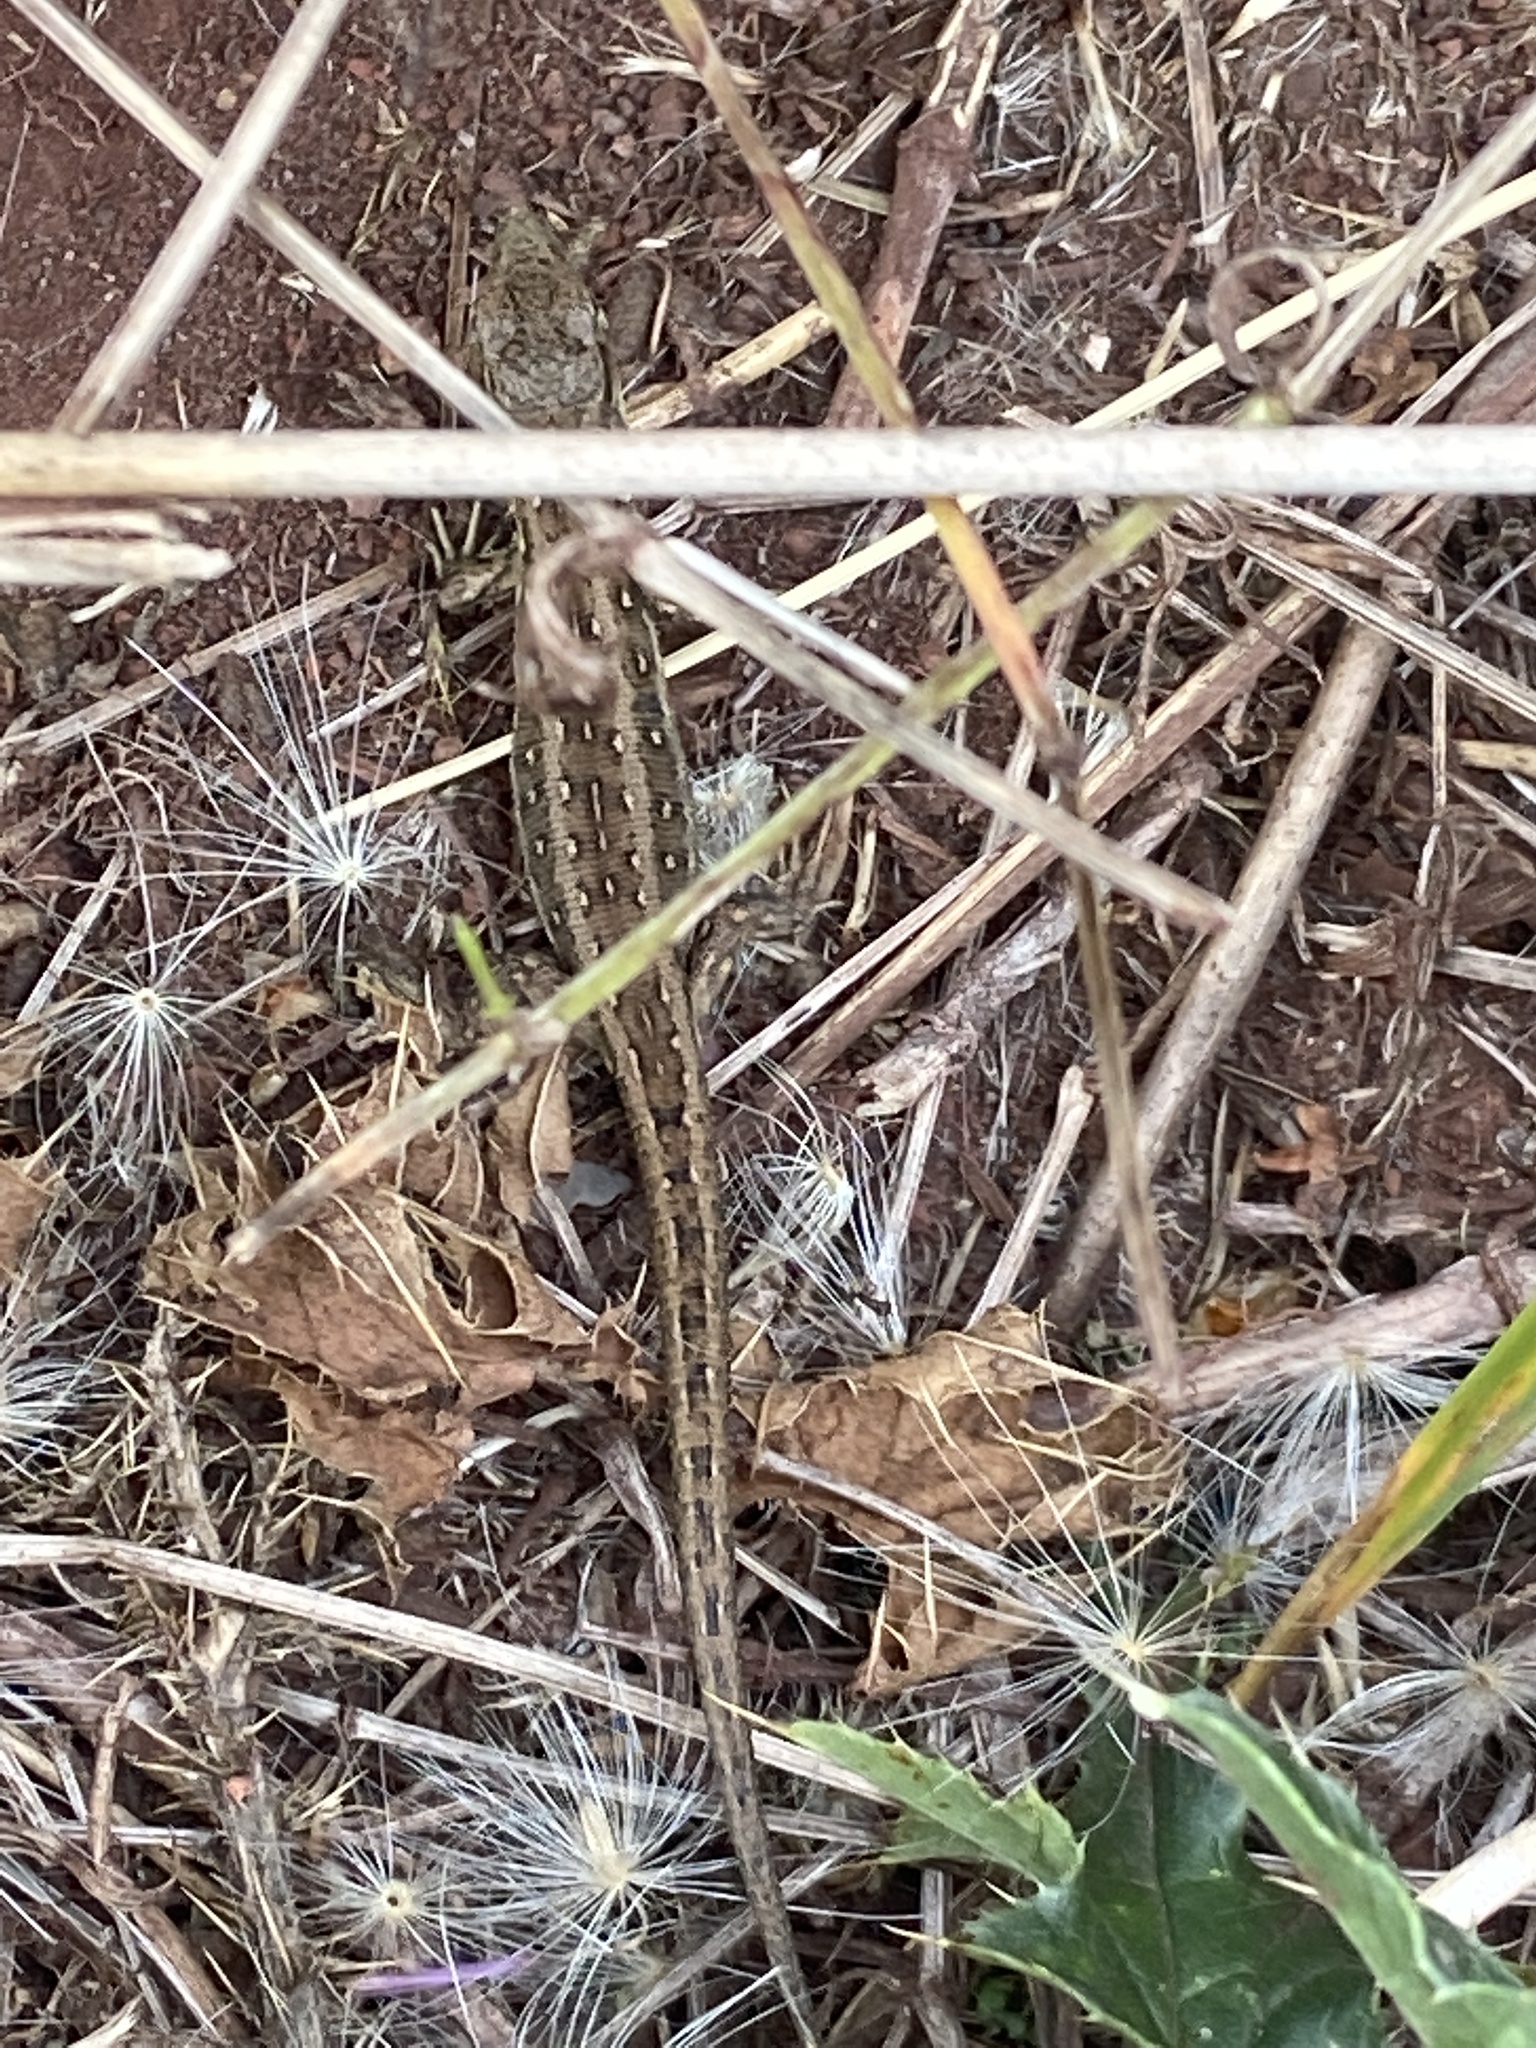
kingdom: Animalia
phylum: Chordata
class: Squamata
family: Lacertidae
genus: Lacerta
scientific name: Lacerta agilis
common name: Sand lizard
